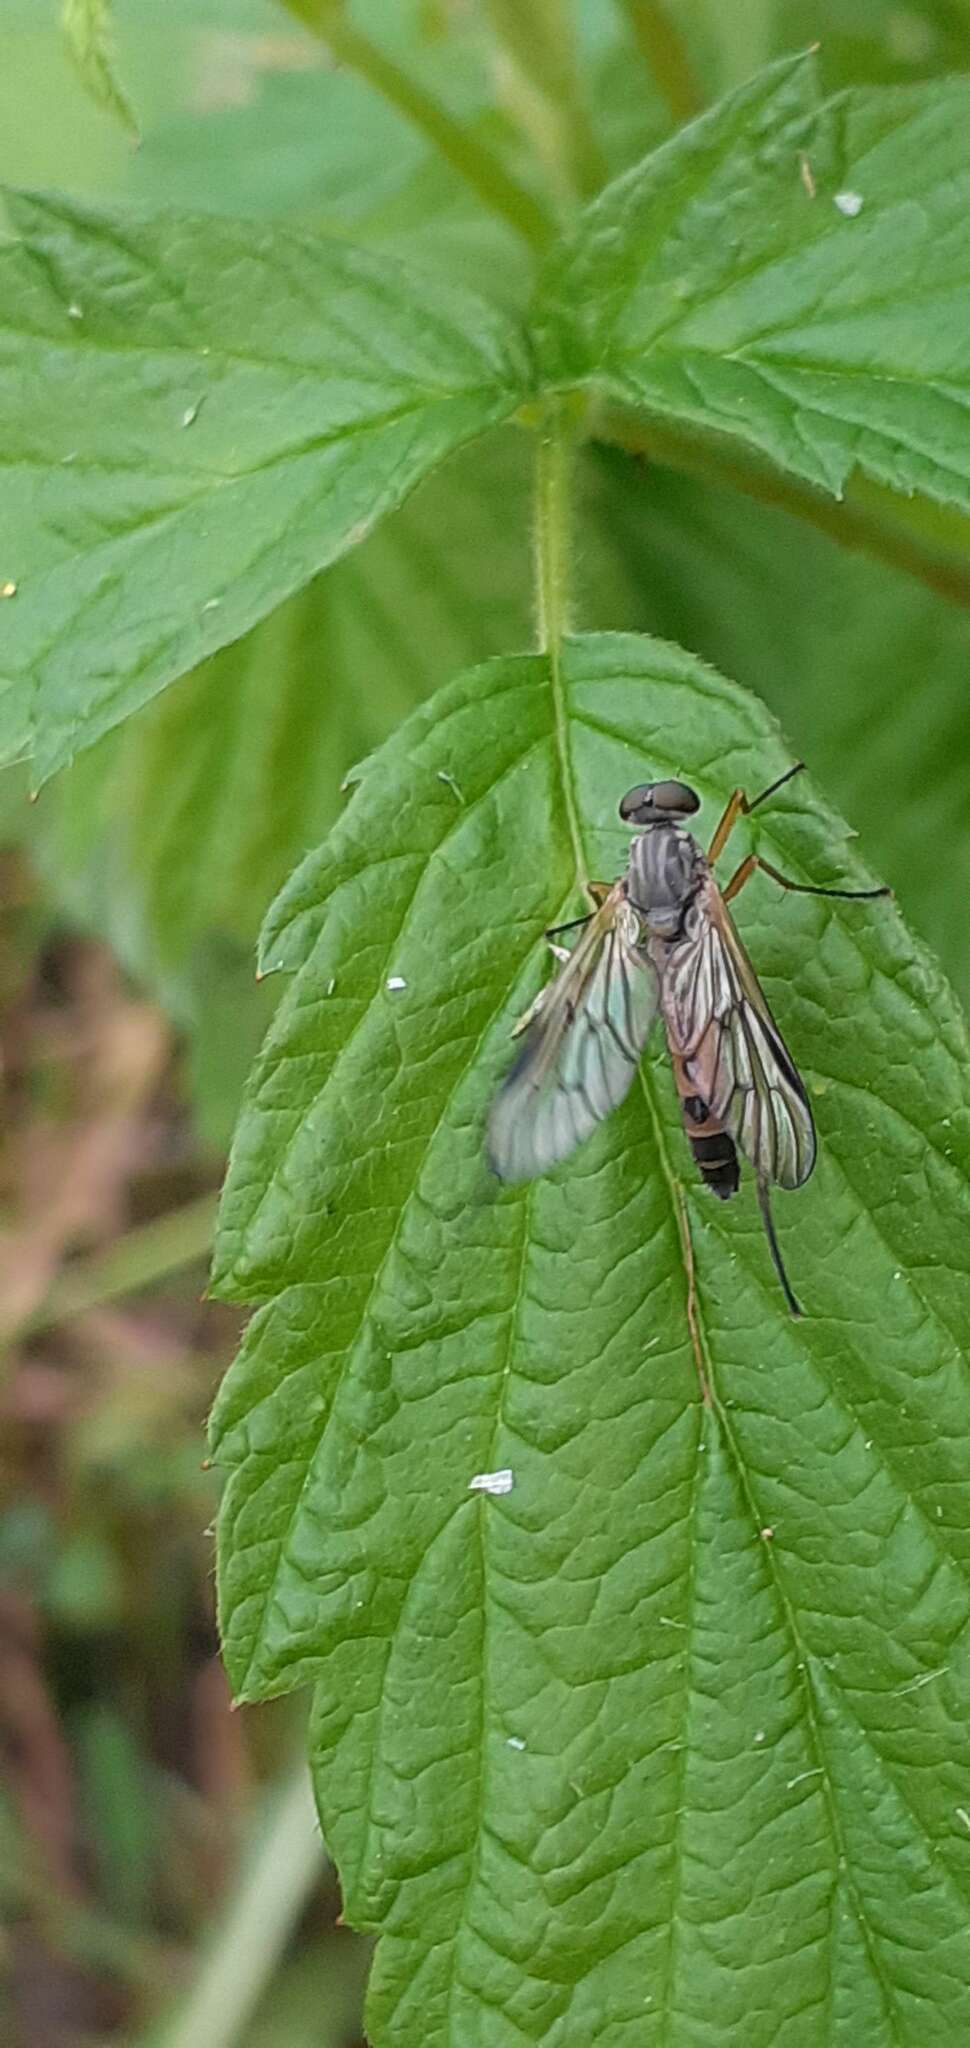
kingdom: Animalia
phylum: Arthropoda
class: Insecta
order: Diptera
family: Rhagionidae
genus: Rhagio
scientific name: Rhagio vitripennis
